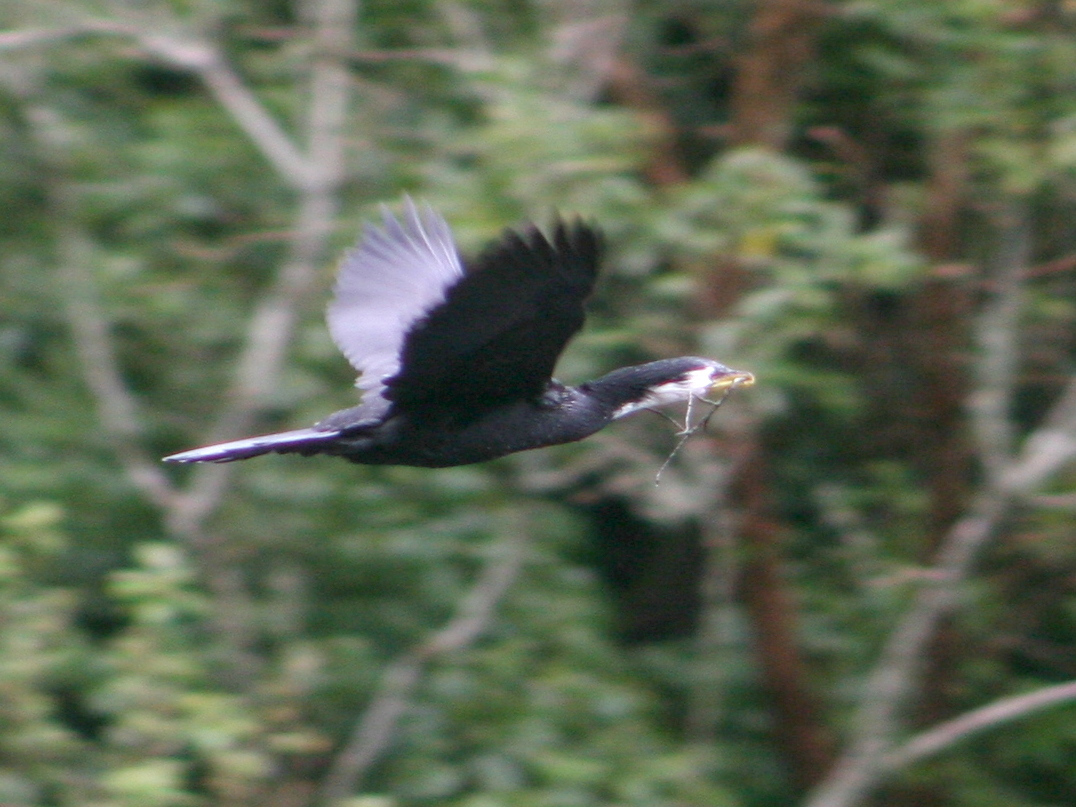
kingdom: Animalia
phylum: Chordata
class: Aves
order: Suliformes
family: Phalacrocoracidae
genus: Microcarbo
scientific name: Microcarbo melanoleucos
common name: Little pied cormorant
